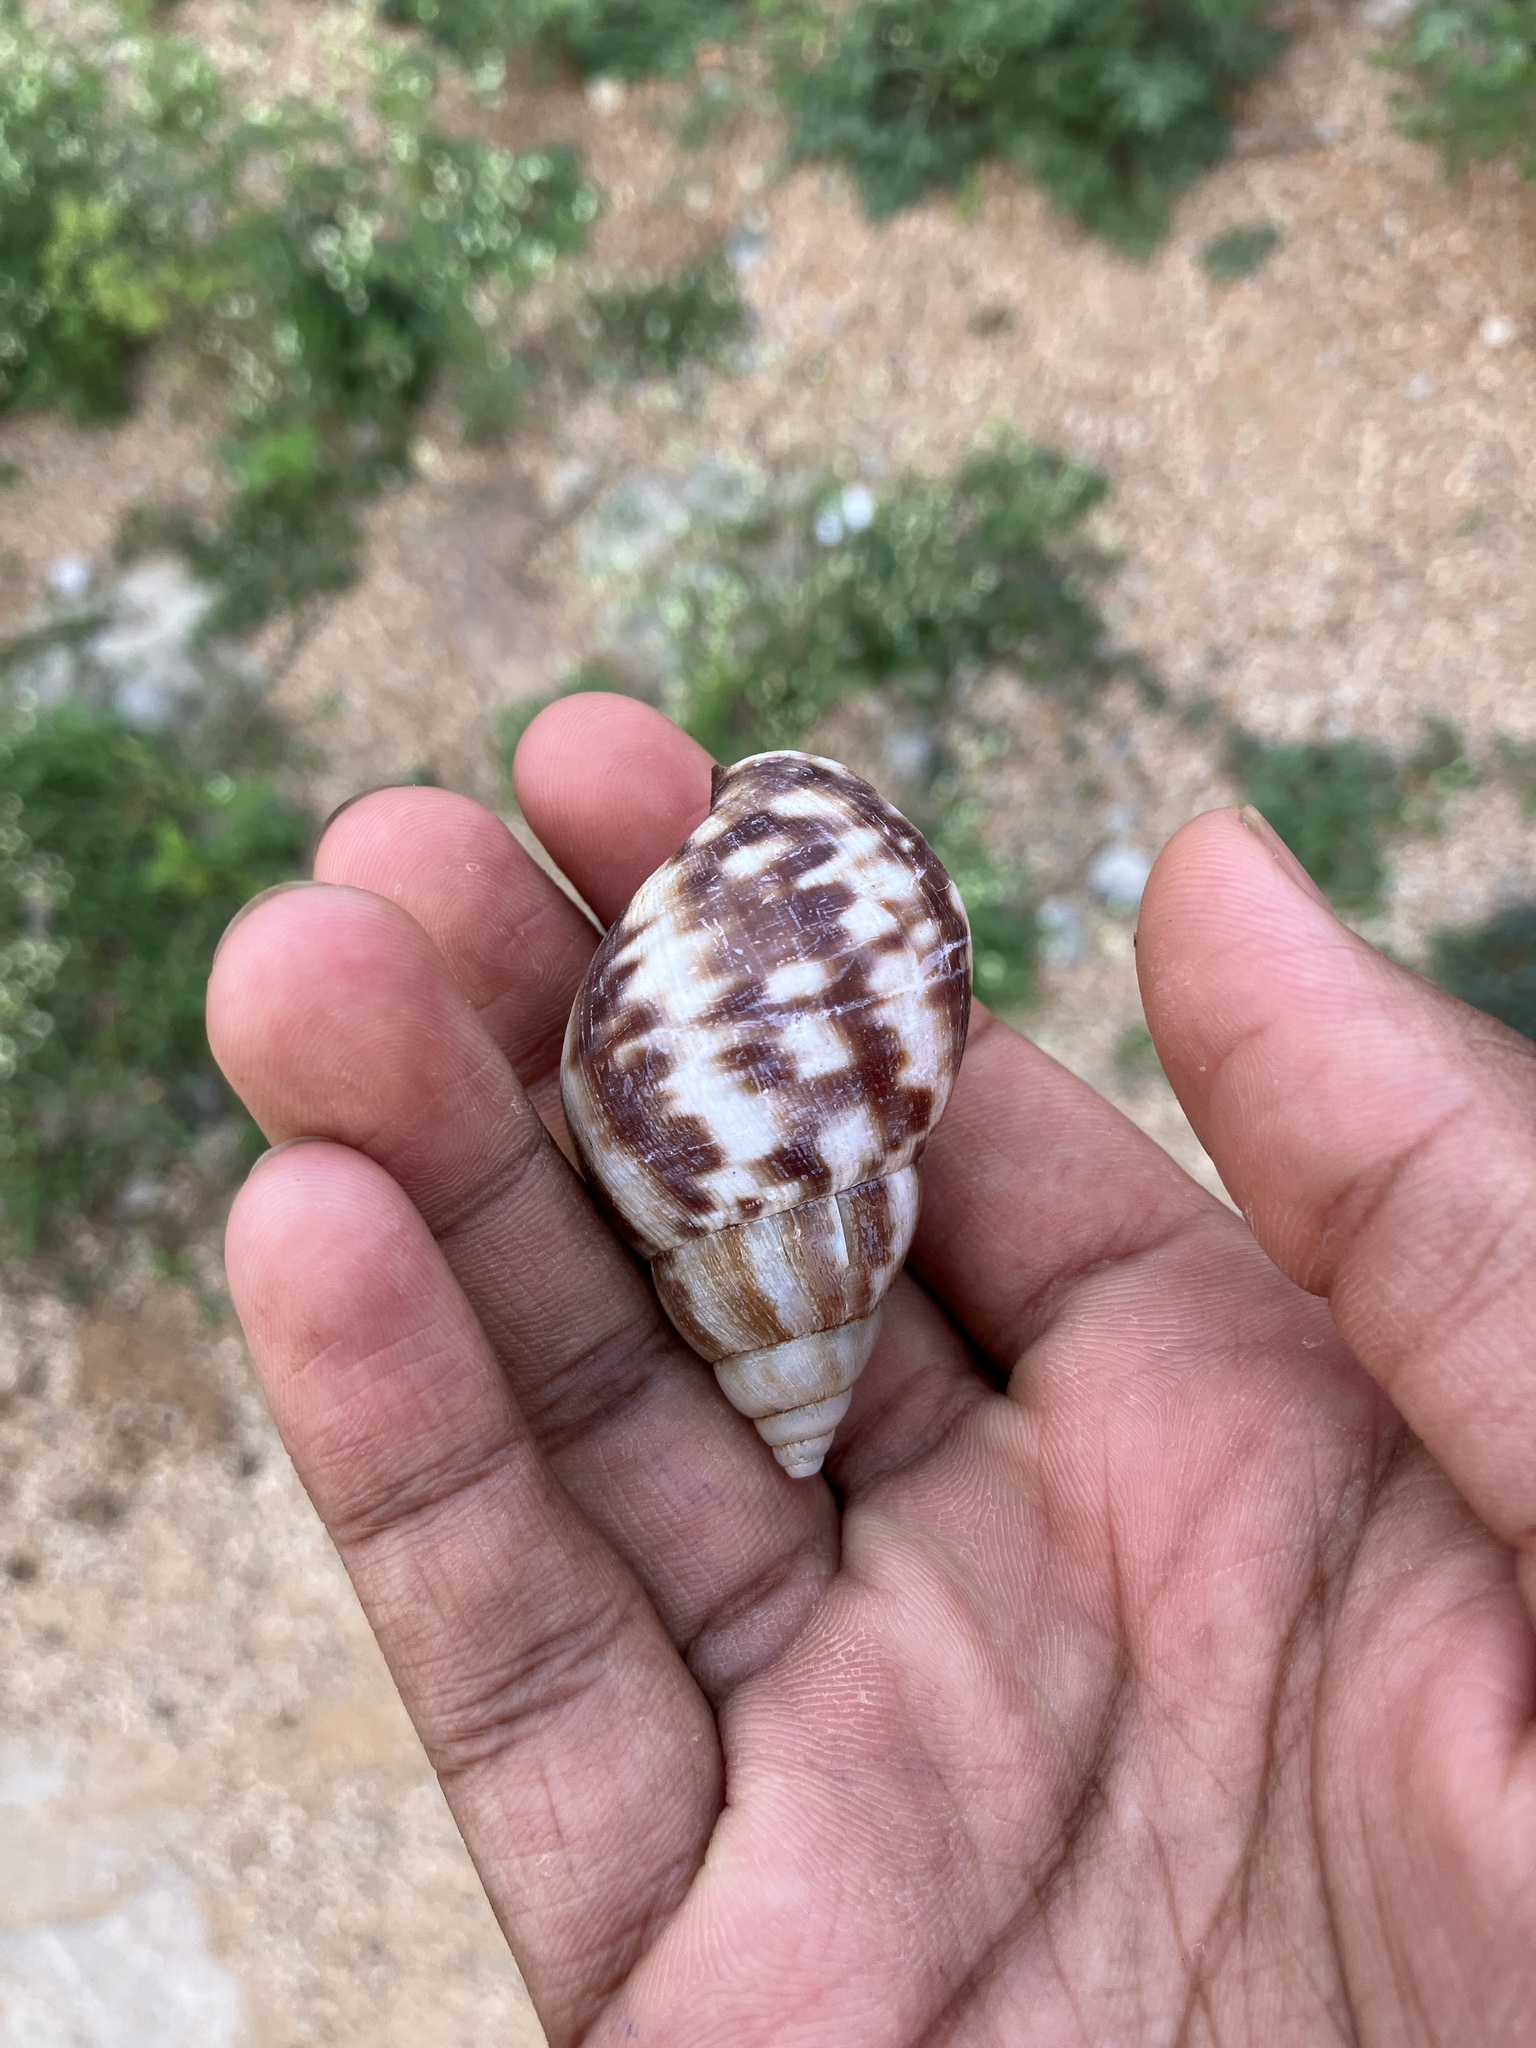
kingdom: Animalia
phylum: Mollusca
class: Gastropoda
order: Stylommatophora
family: Achatinidae
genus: Lissachatina
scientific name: Lissachatina fulica
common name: Giant african snail
